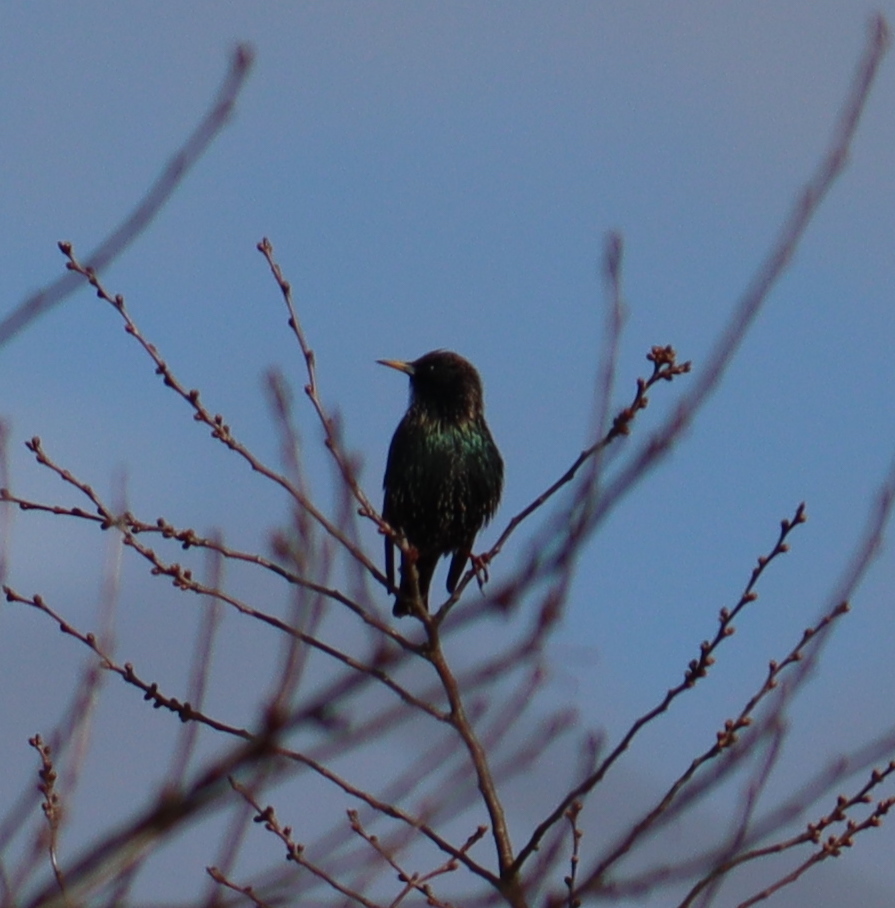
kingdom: Animalia
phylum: Chordata
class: Aves
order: Passeriformes
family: Sturnidae
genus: Sturnus
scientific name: Sturnus vulgaris
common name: Common starling
